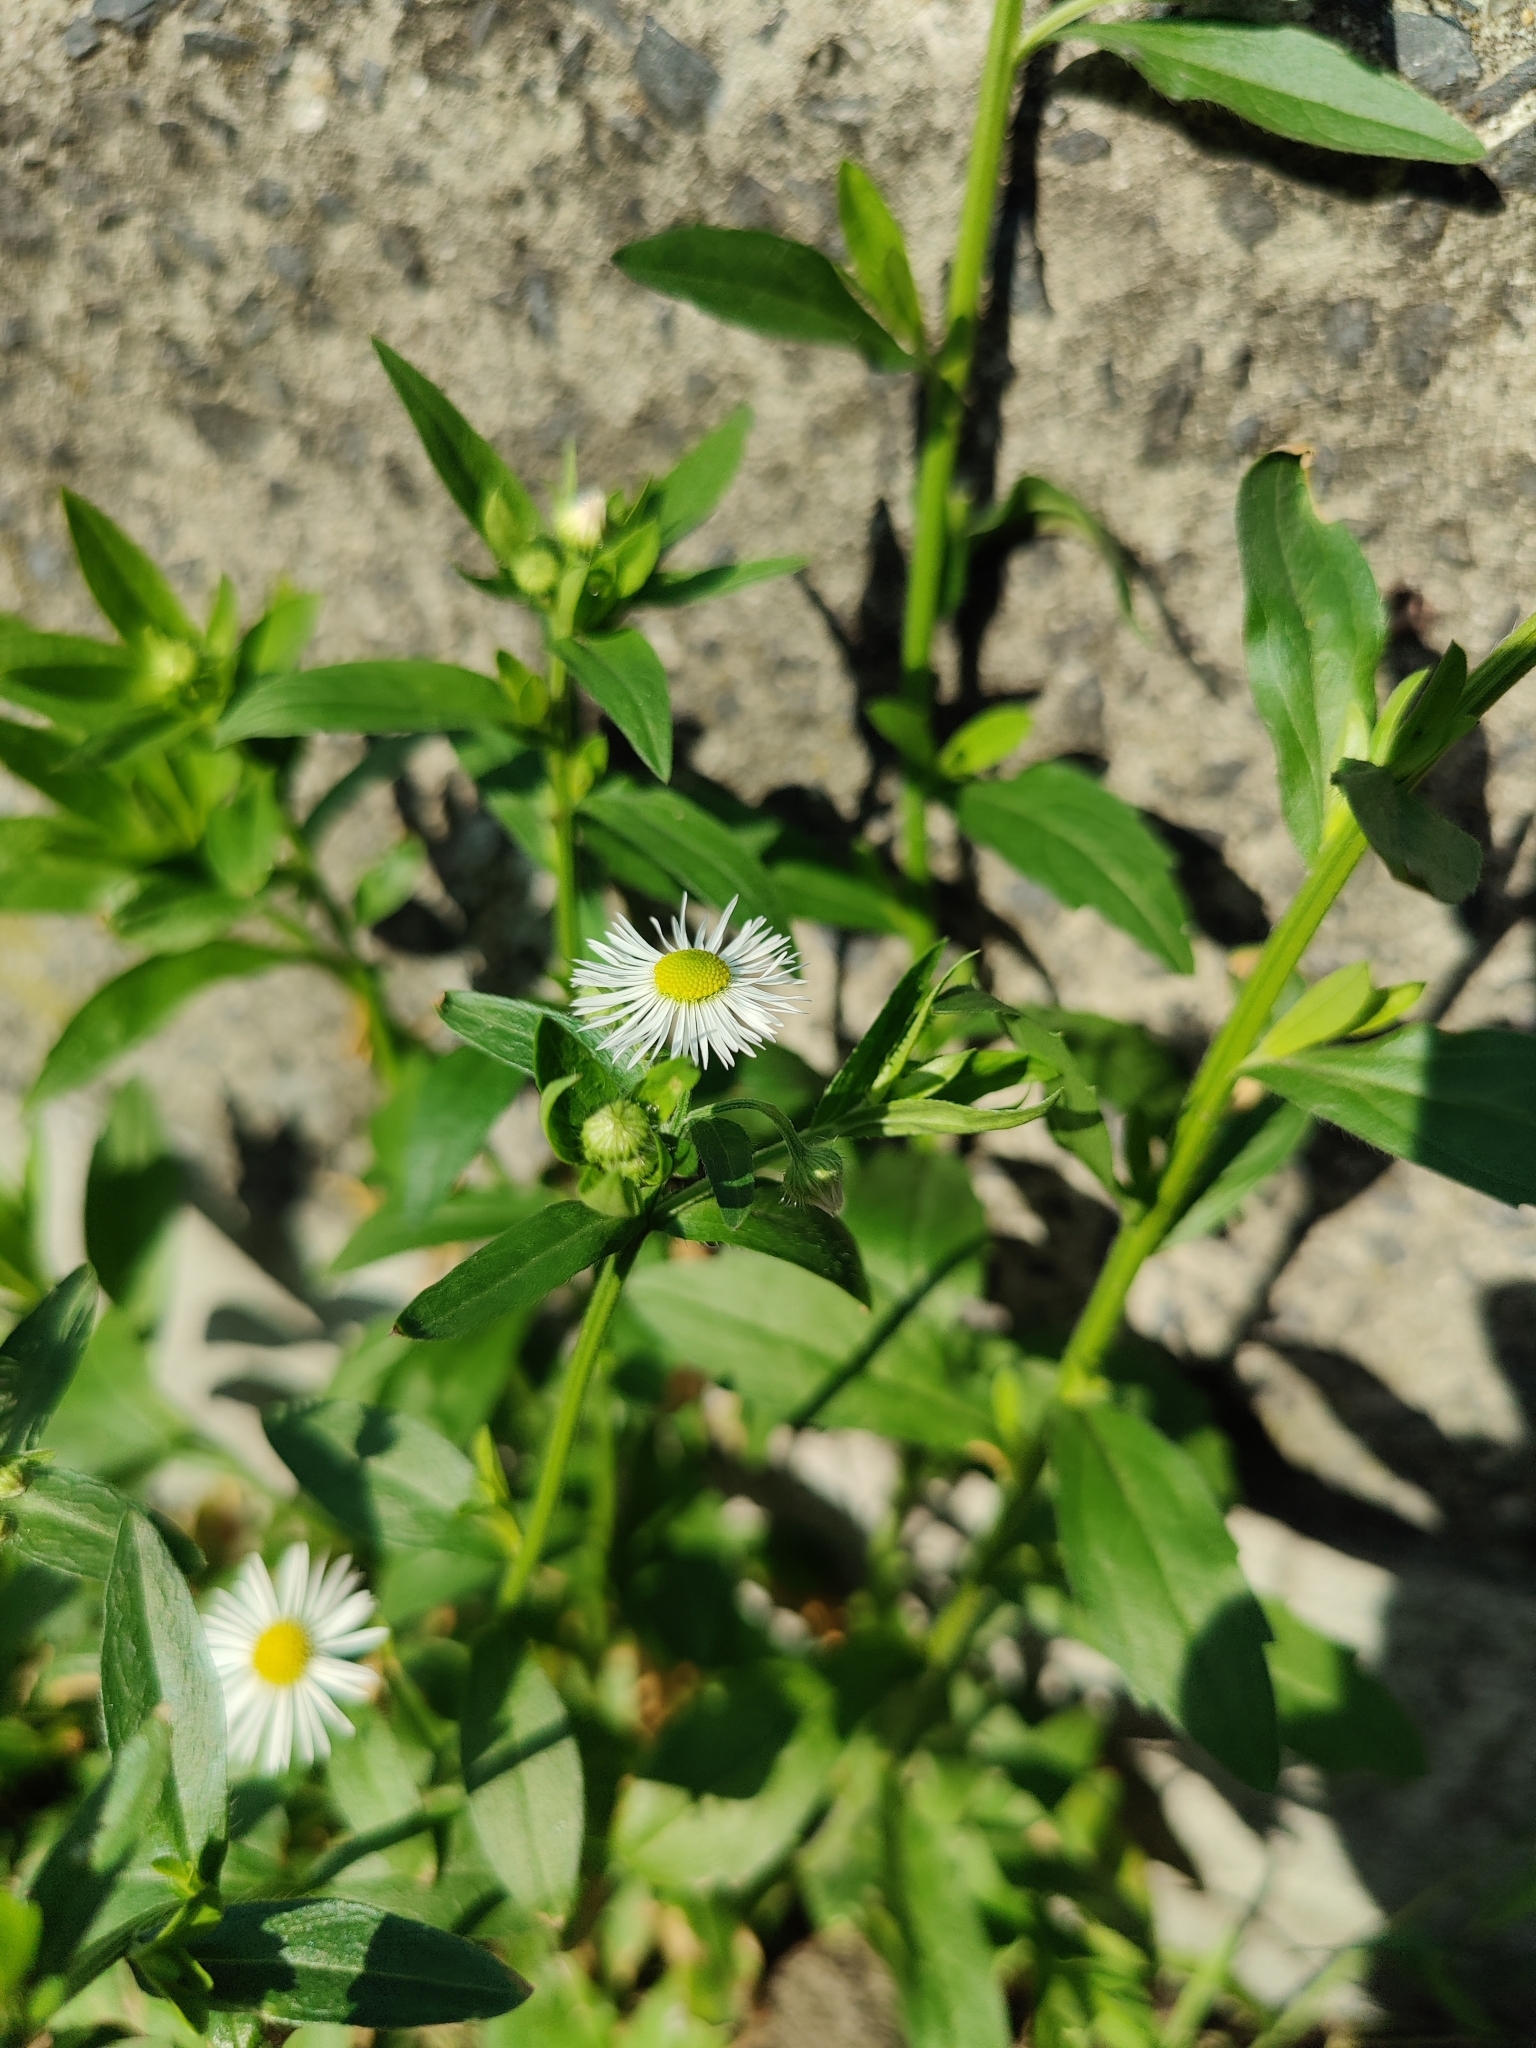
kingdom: Plantae
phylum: Tracheophyta
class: Magnoliopsida
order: Asterales
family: Asteraceae
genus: Erigeron
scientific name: Erigeron annuus
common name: Tall fleabane
